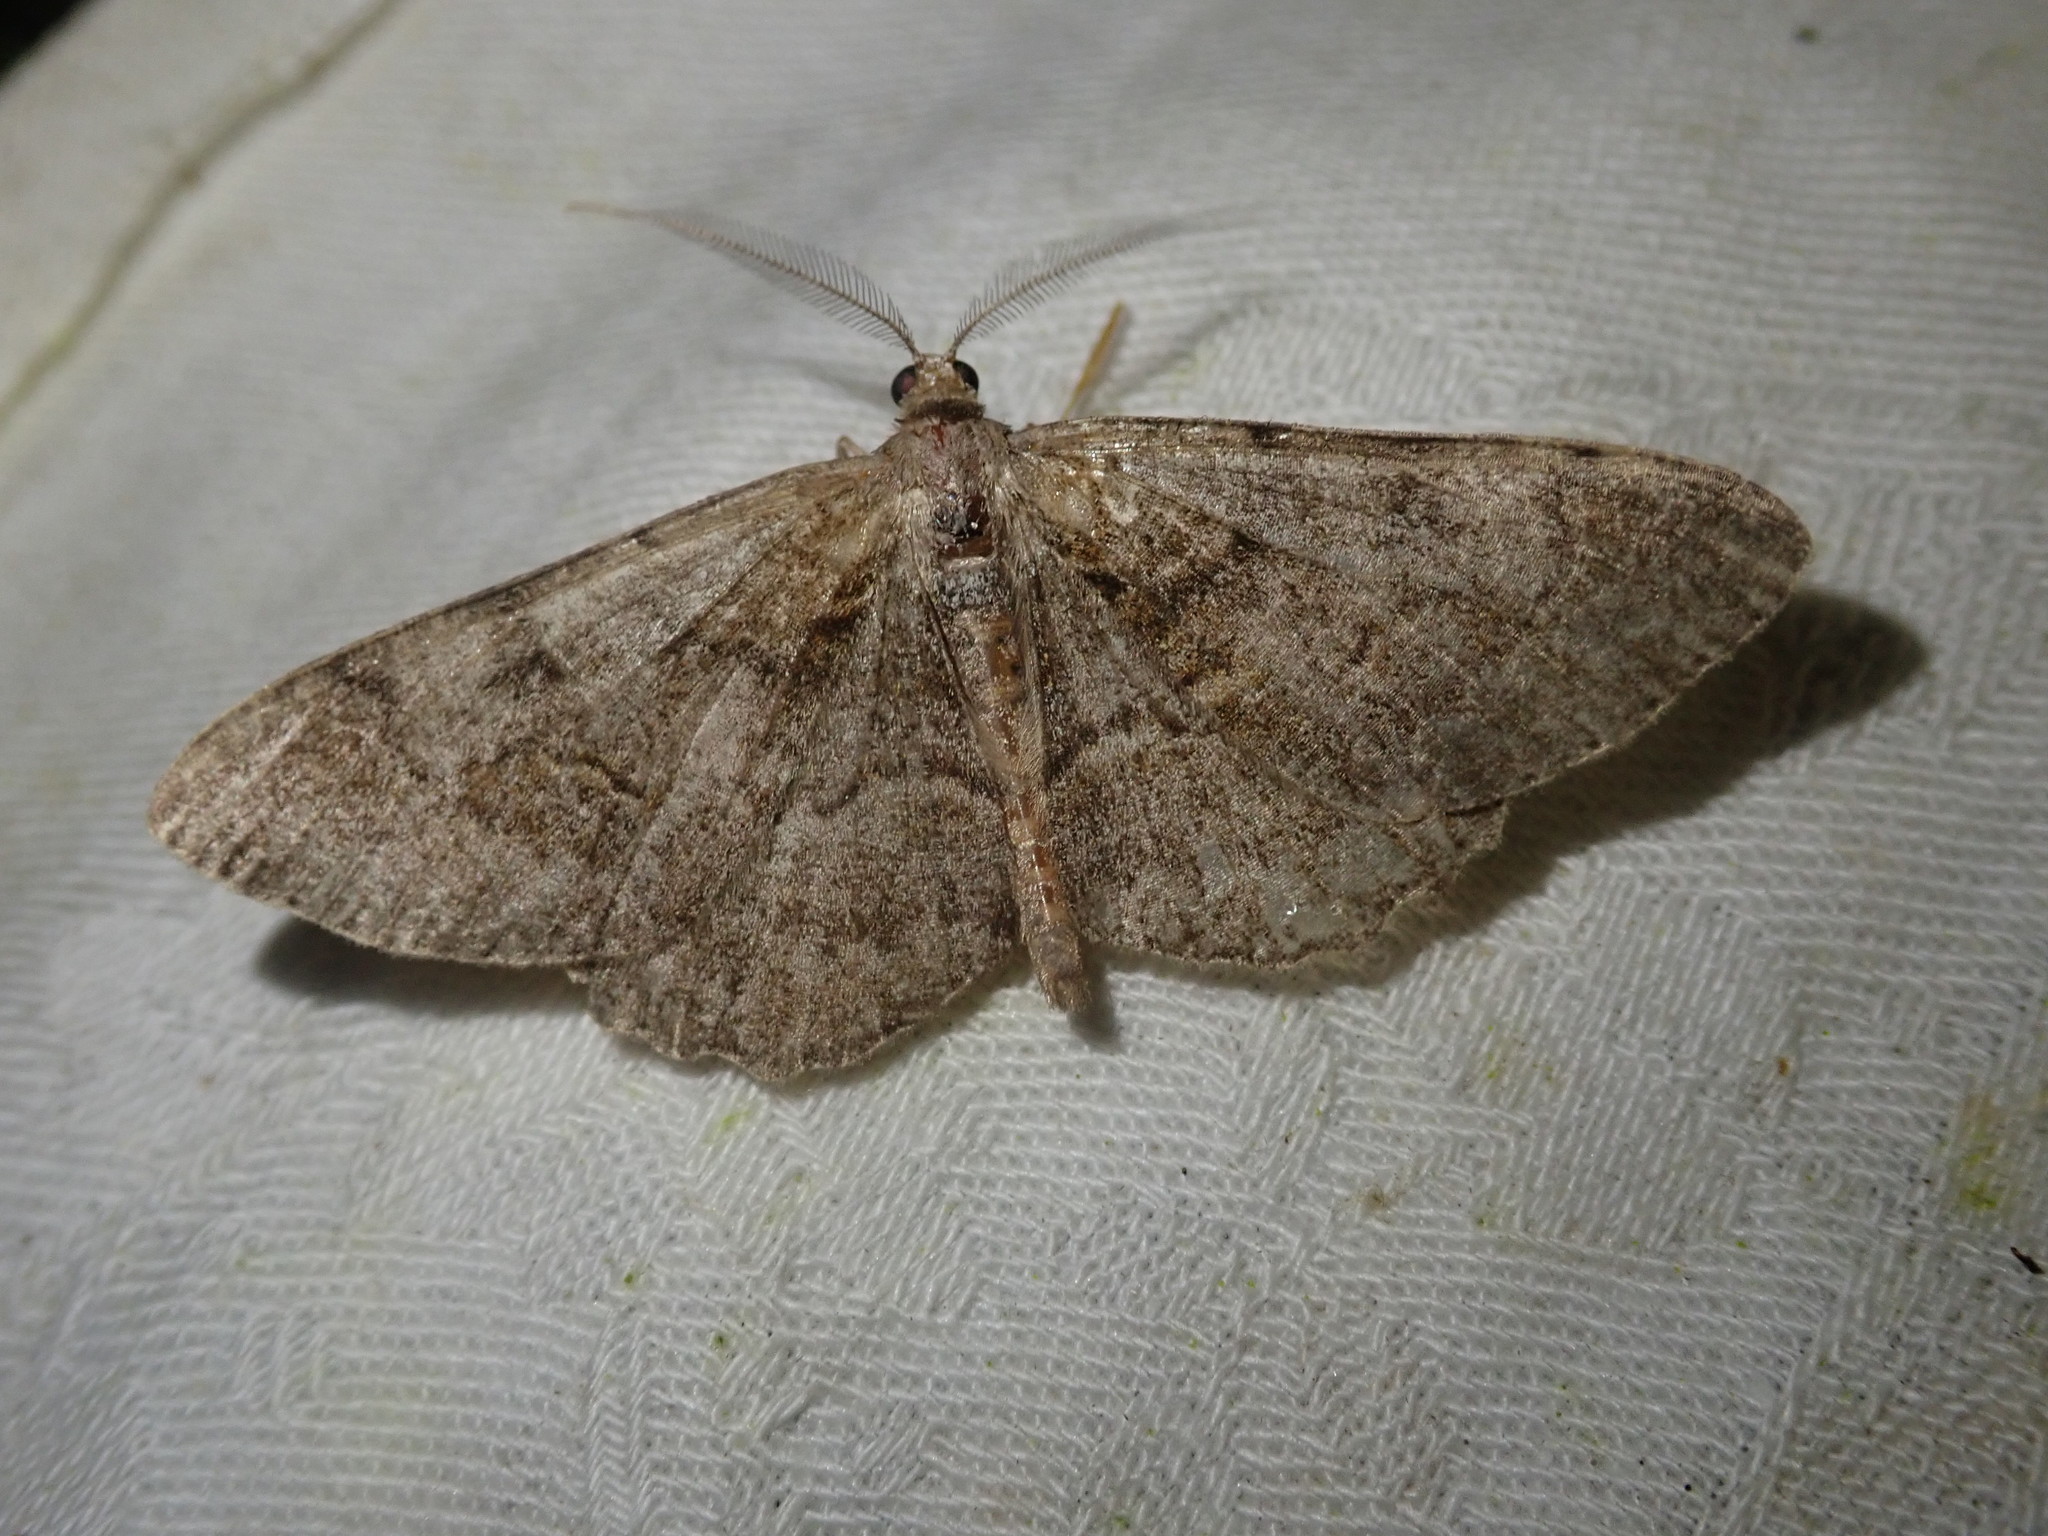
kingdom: Animalia
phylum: Arthropoda
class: Insecta
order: Lepidoptera
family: Geometridae
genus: Alcis
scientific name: Alcis repandata
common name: Mottled beauty
